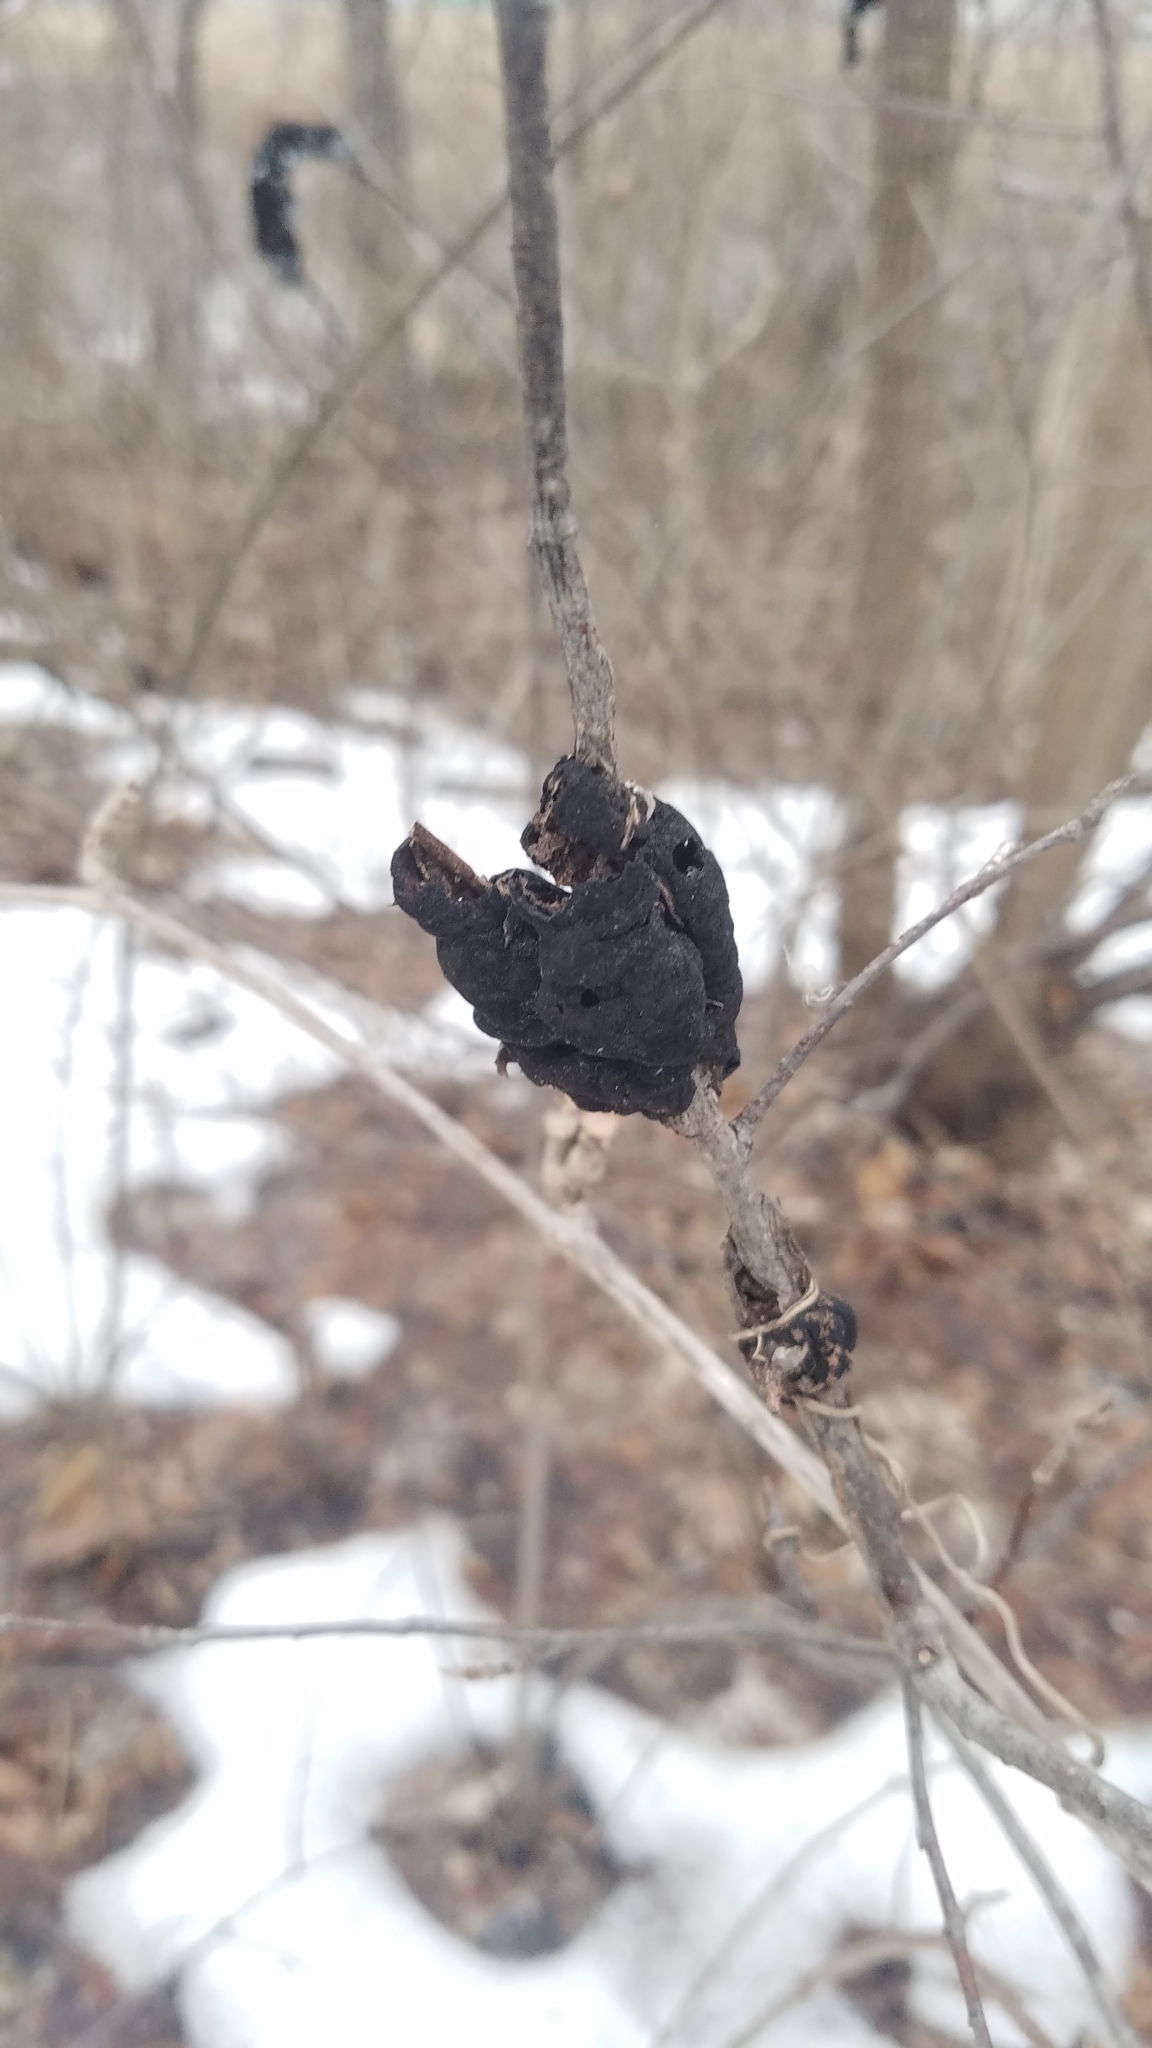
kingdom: Fungi
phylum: Ascomycota
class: Dothideomycetes
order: Venturiales
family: Venturiaceae
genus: Apiosporina
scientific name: Apiosporina morbosa
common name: Black knot
